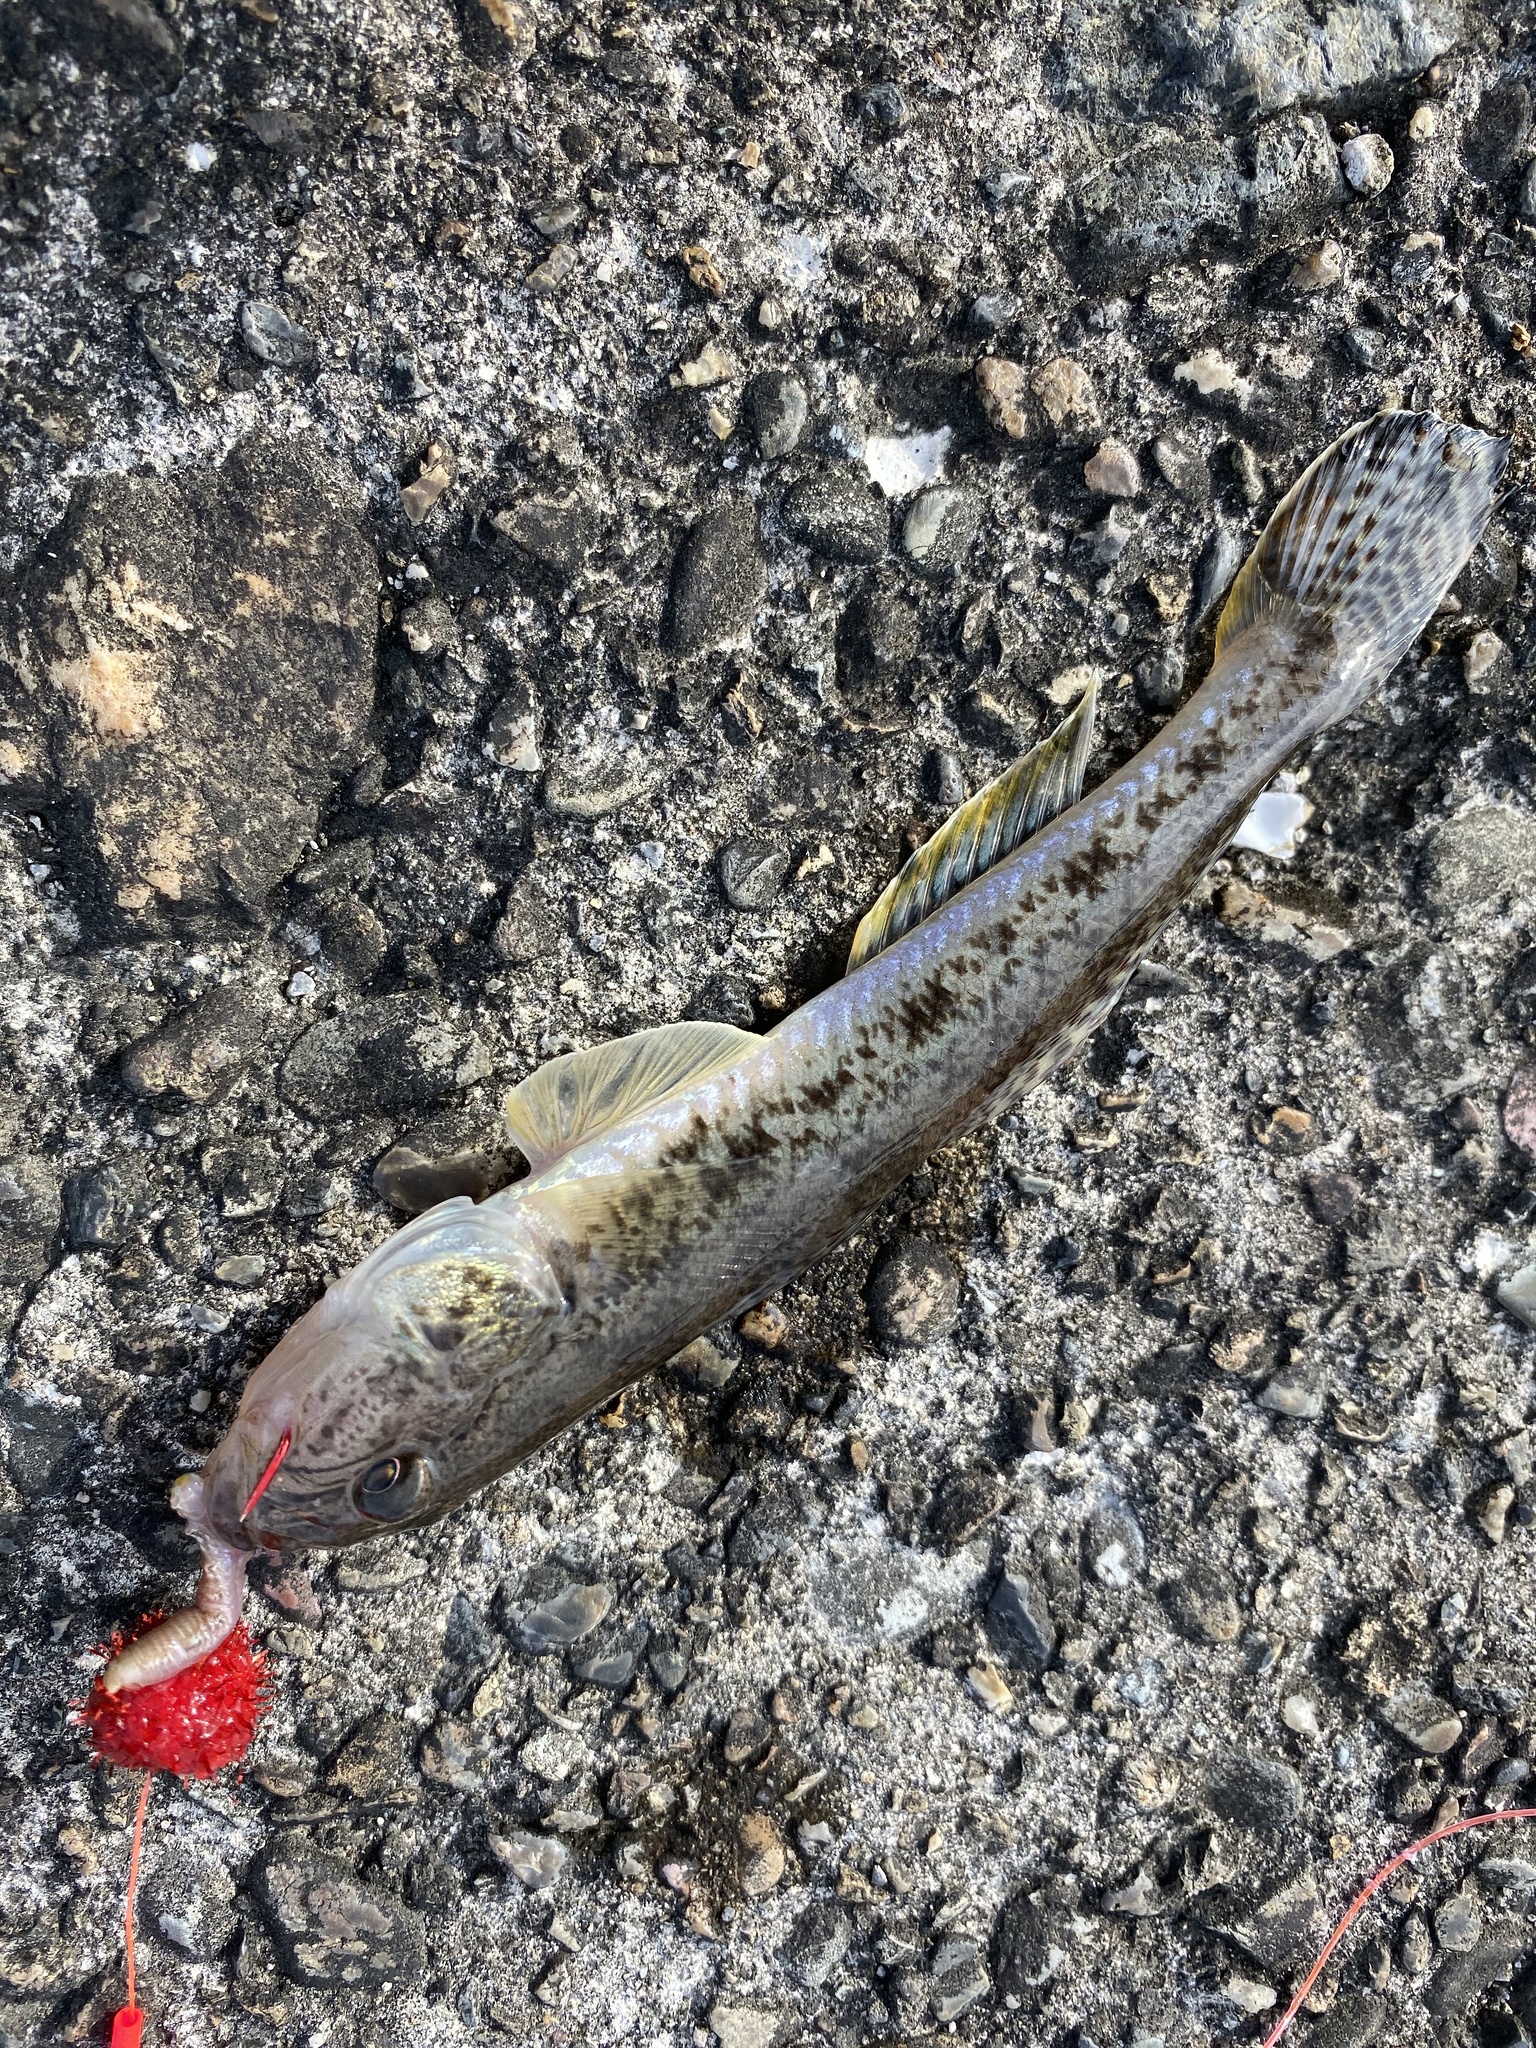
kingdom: Animalia
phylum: Chordata
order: Perciformes
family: Gobiidae
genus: Acanthogobius
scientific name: Acanthogobius flavimanus
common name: Yellowfin goby
